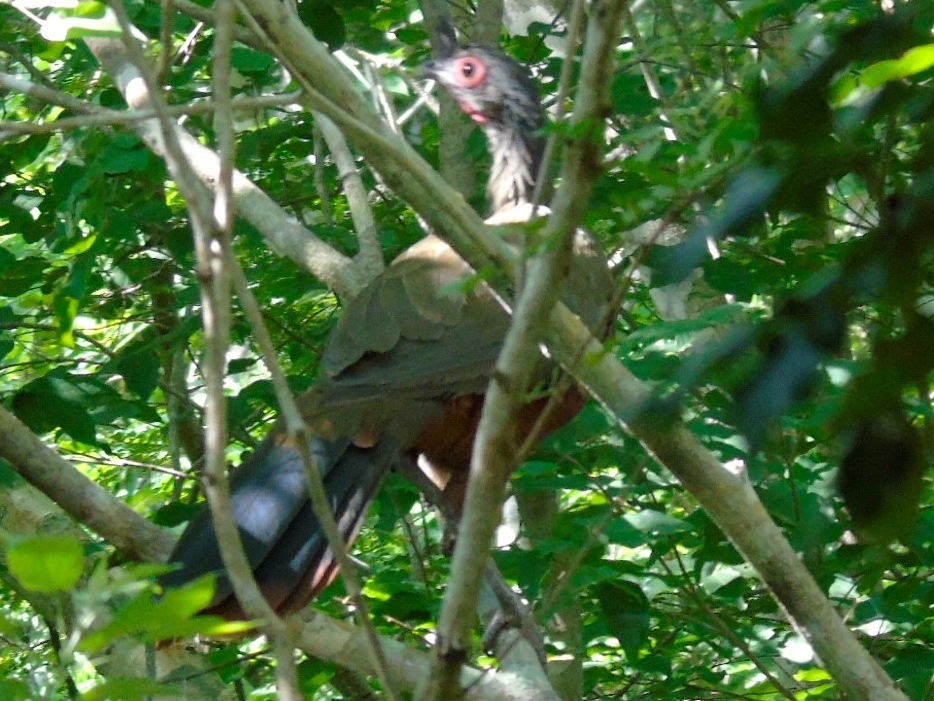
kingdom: Animalia
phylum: Chordata
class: Aves
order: Galliformes
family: Cracidae
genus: Ortalis
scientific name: Ortalis wagleri
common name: Rufous-bellied chachalaca
